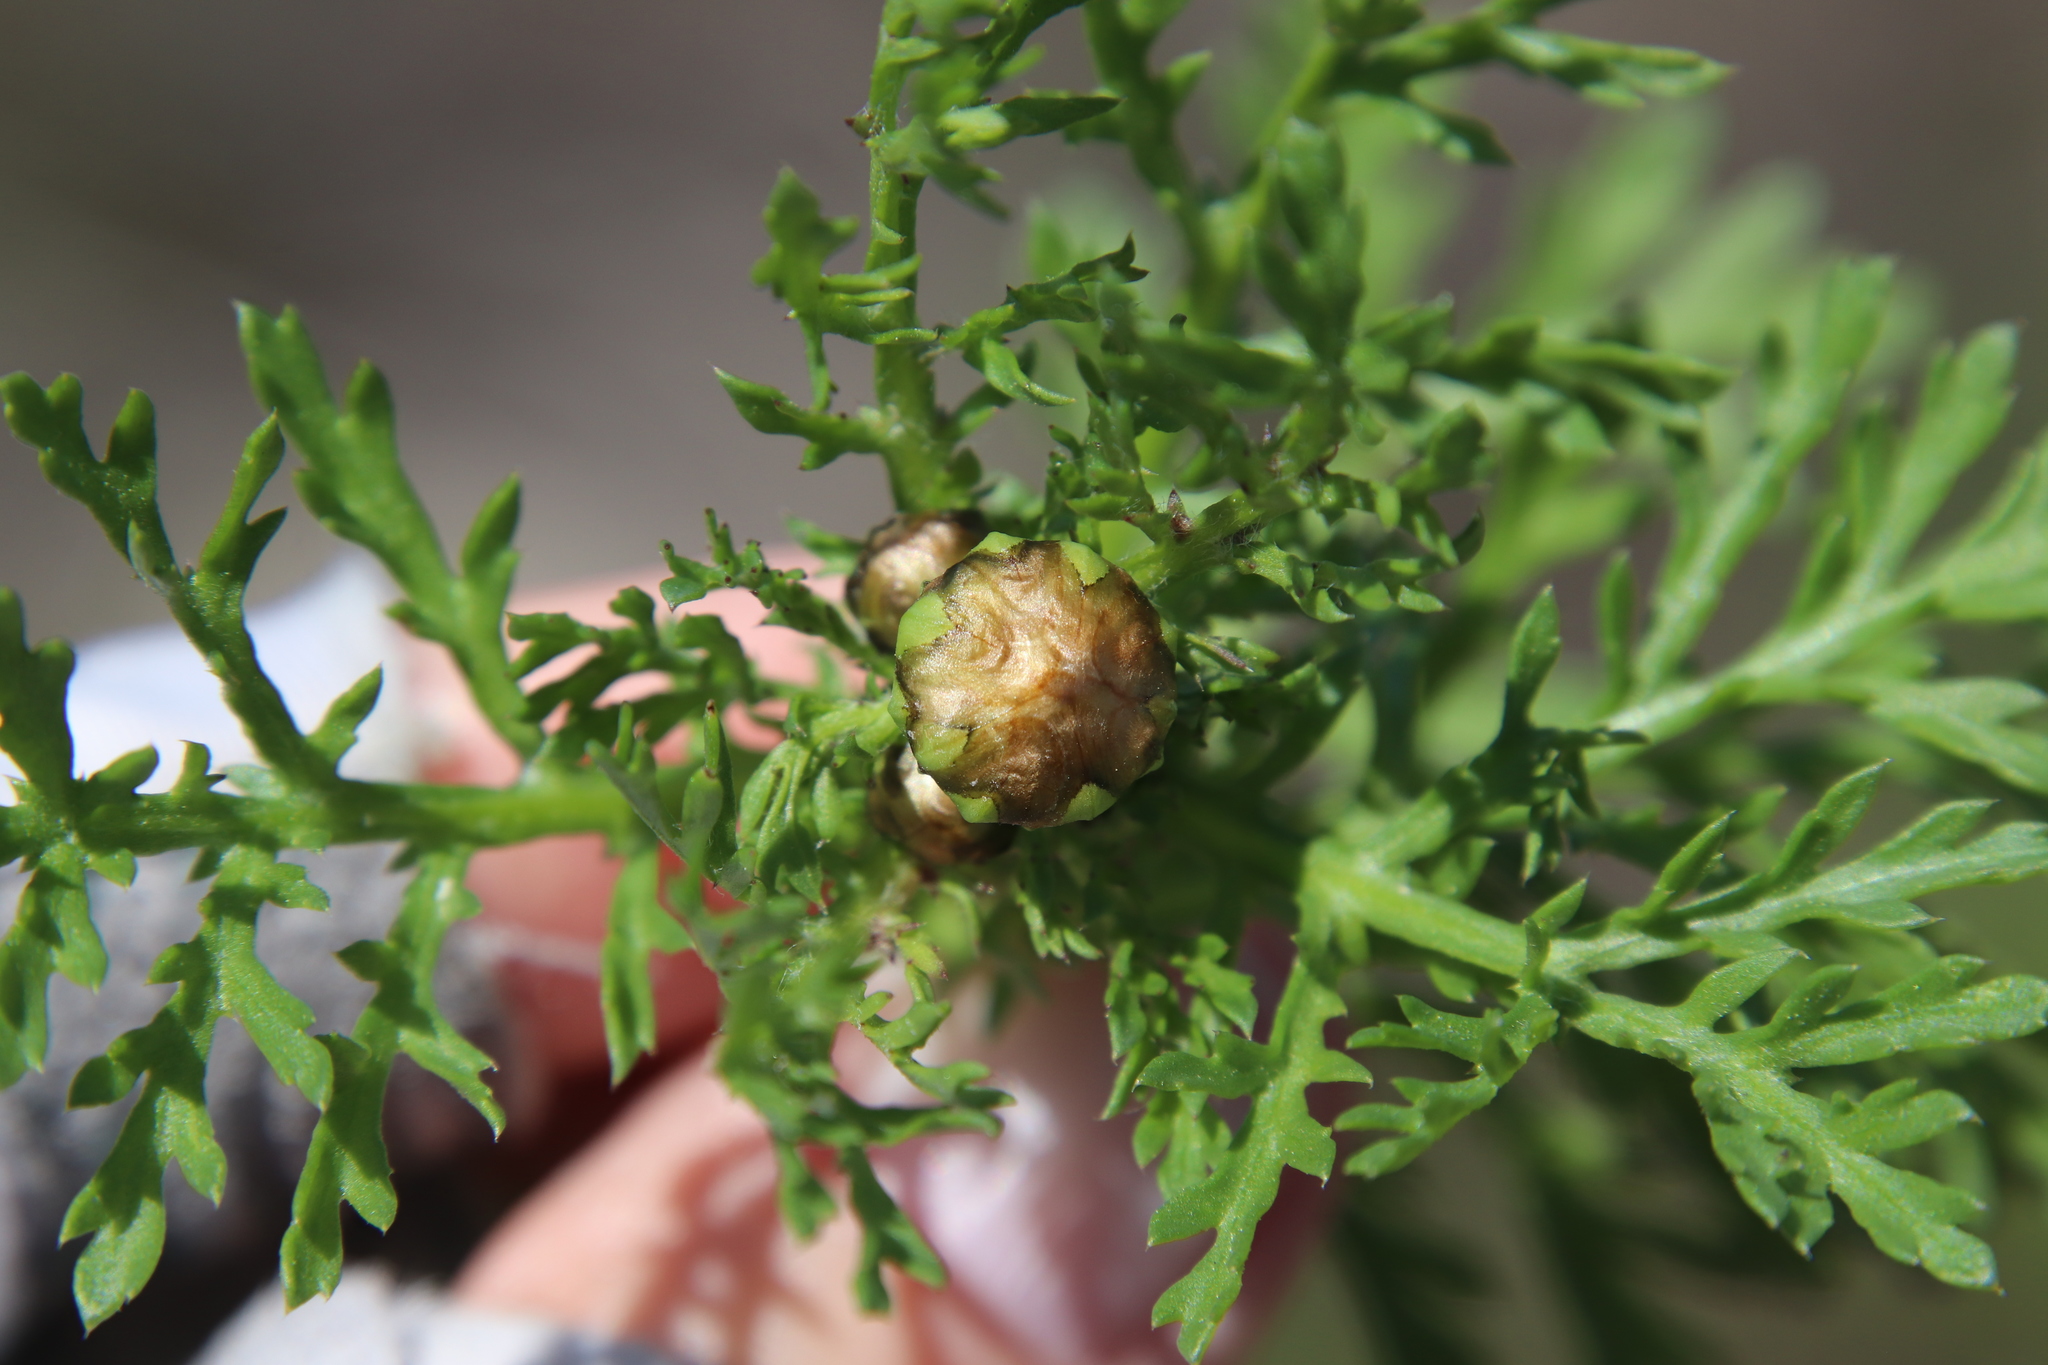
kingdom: Plantae
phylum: Tracheophyta
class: Magnoliopsida
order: Asterales
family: Asteraceae
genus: Glebionis
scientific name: Glebionis coronaria
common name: Crowndaisy
